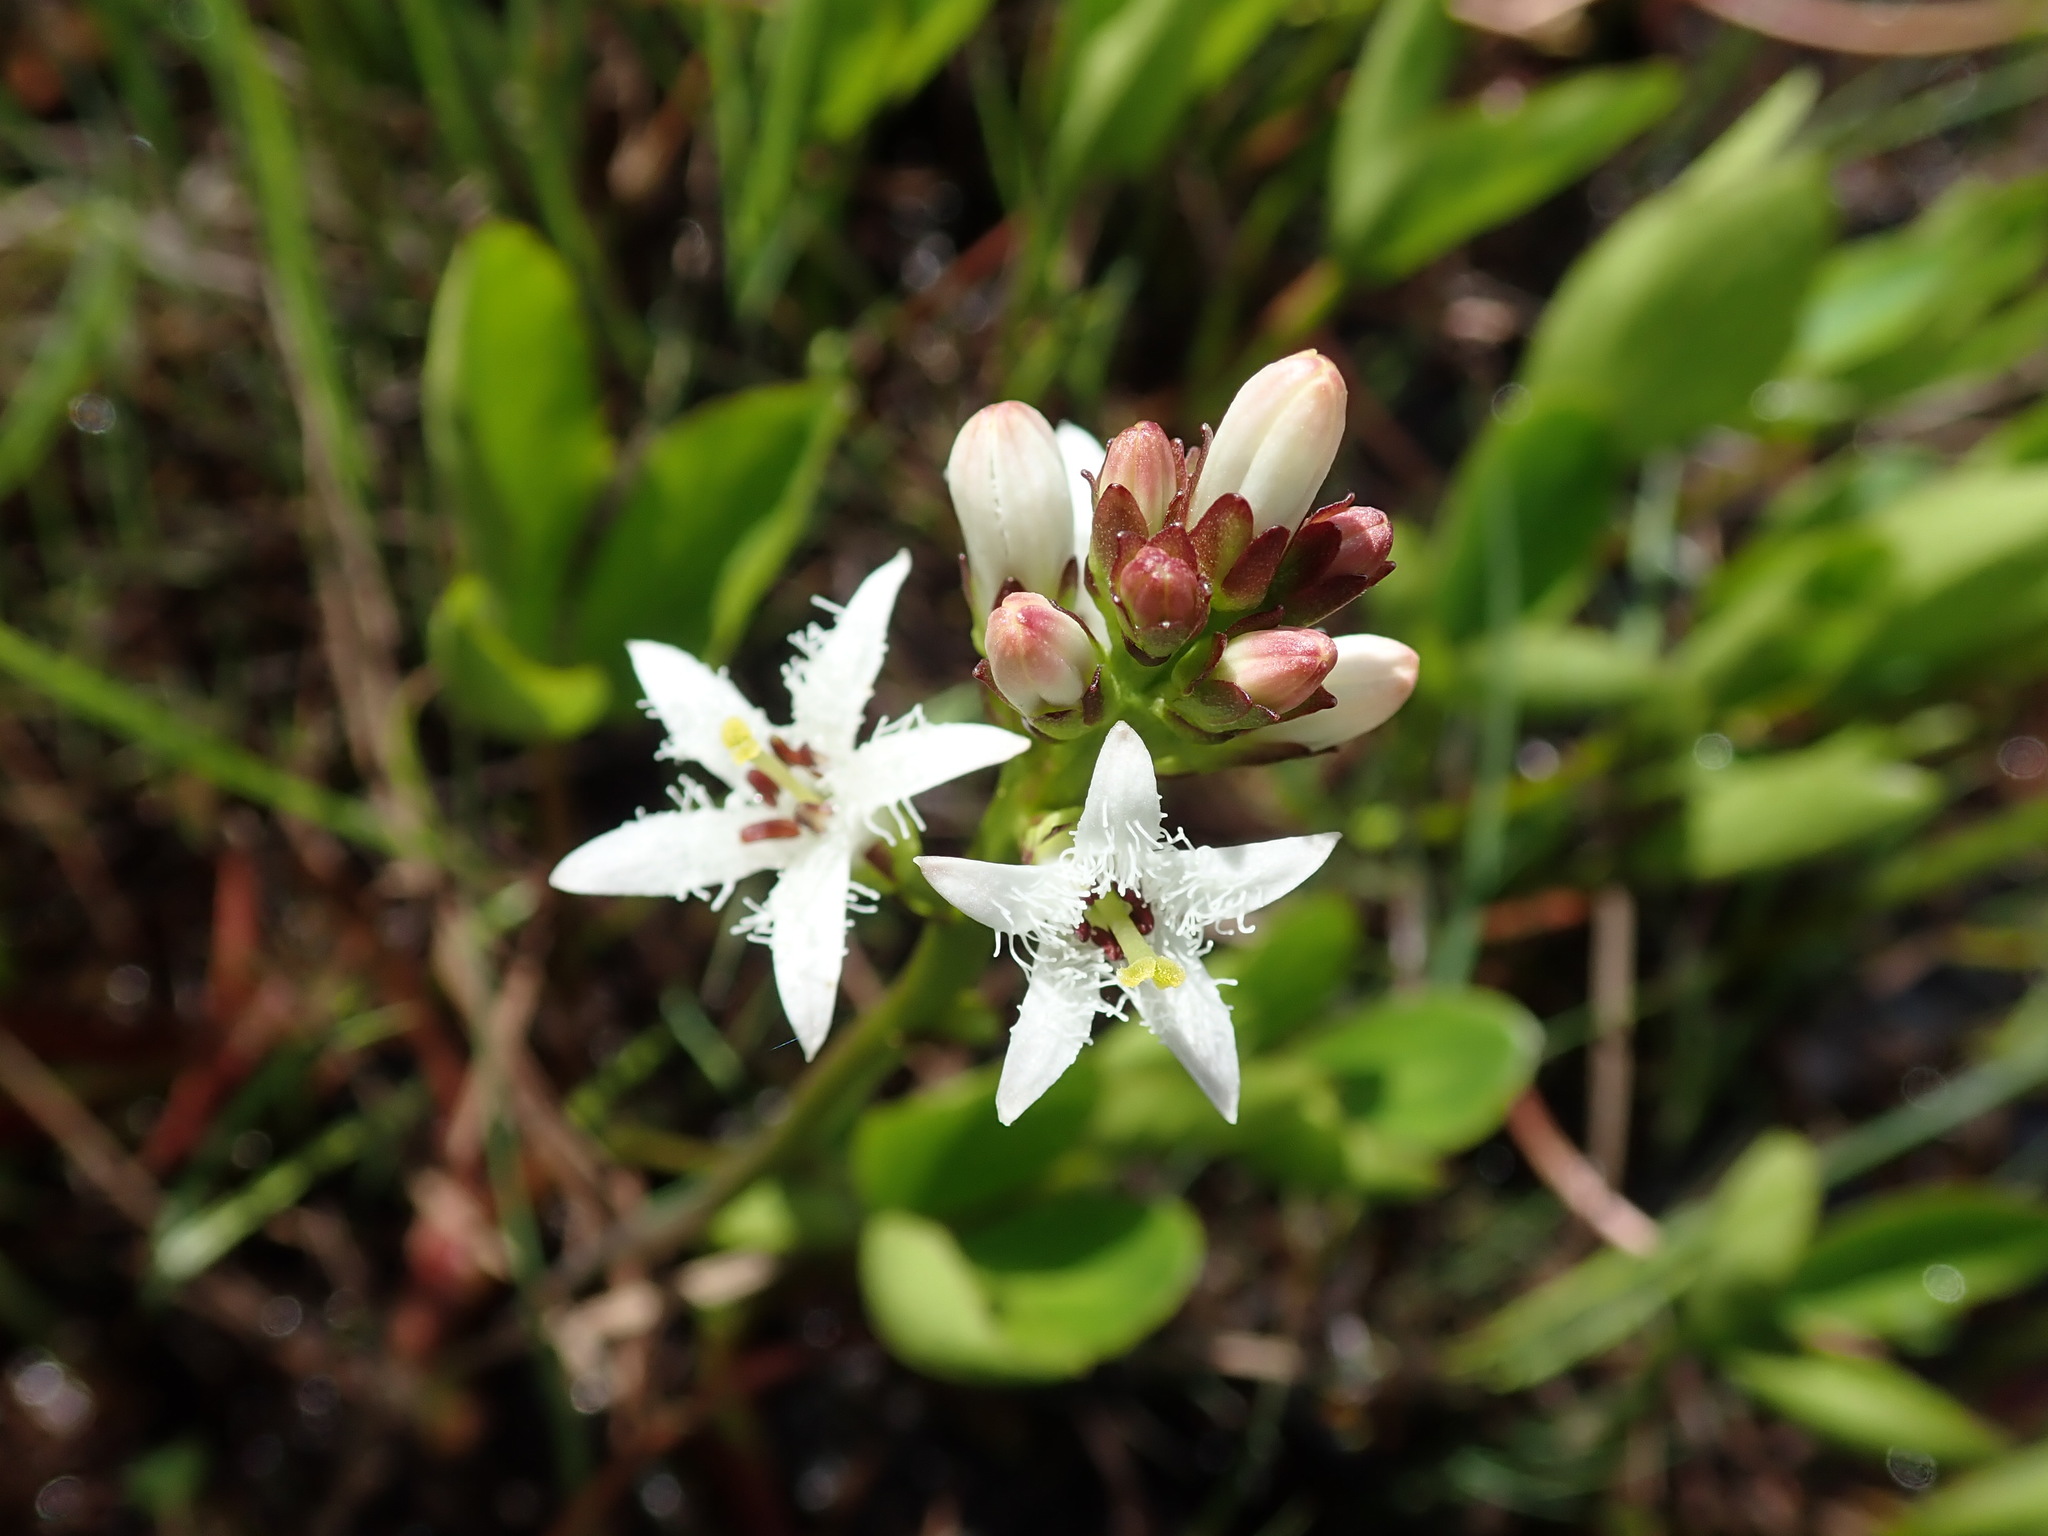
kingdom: Plantae
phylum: Tracheophyta
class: Magnoliopsida
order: Asterales
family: Menyanthaceae
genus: Menyanthes
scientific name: Menyanthes trifoliata
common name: Bogbean
